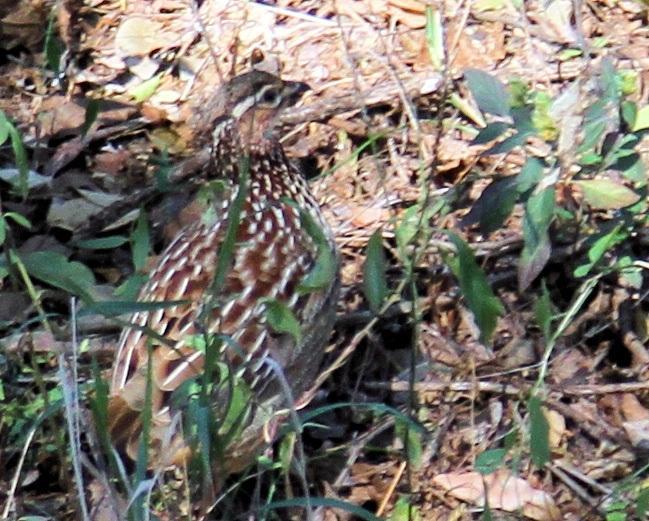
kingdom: Animalia
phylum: Chordata
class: Aves
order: Galliformes
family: Phasianidae
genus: Ortygornis
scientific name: Ortygornis sephaena
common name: Crested francolin
